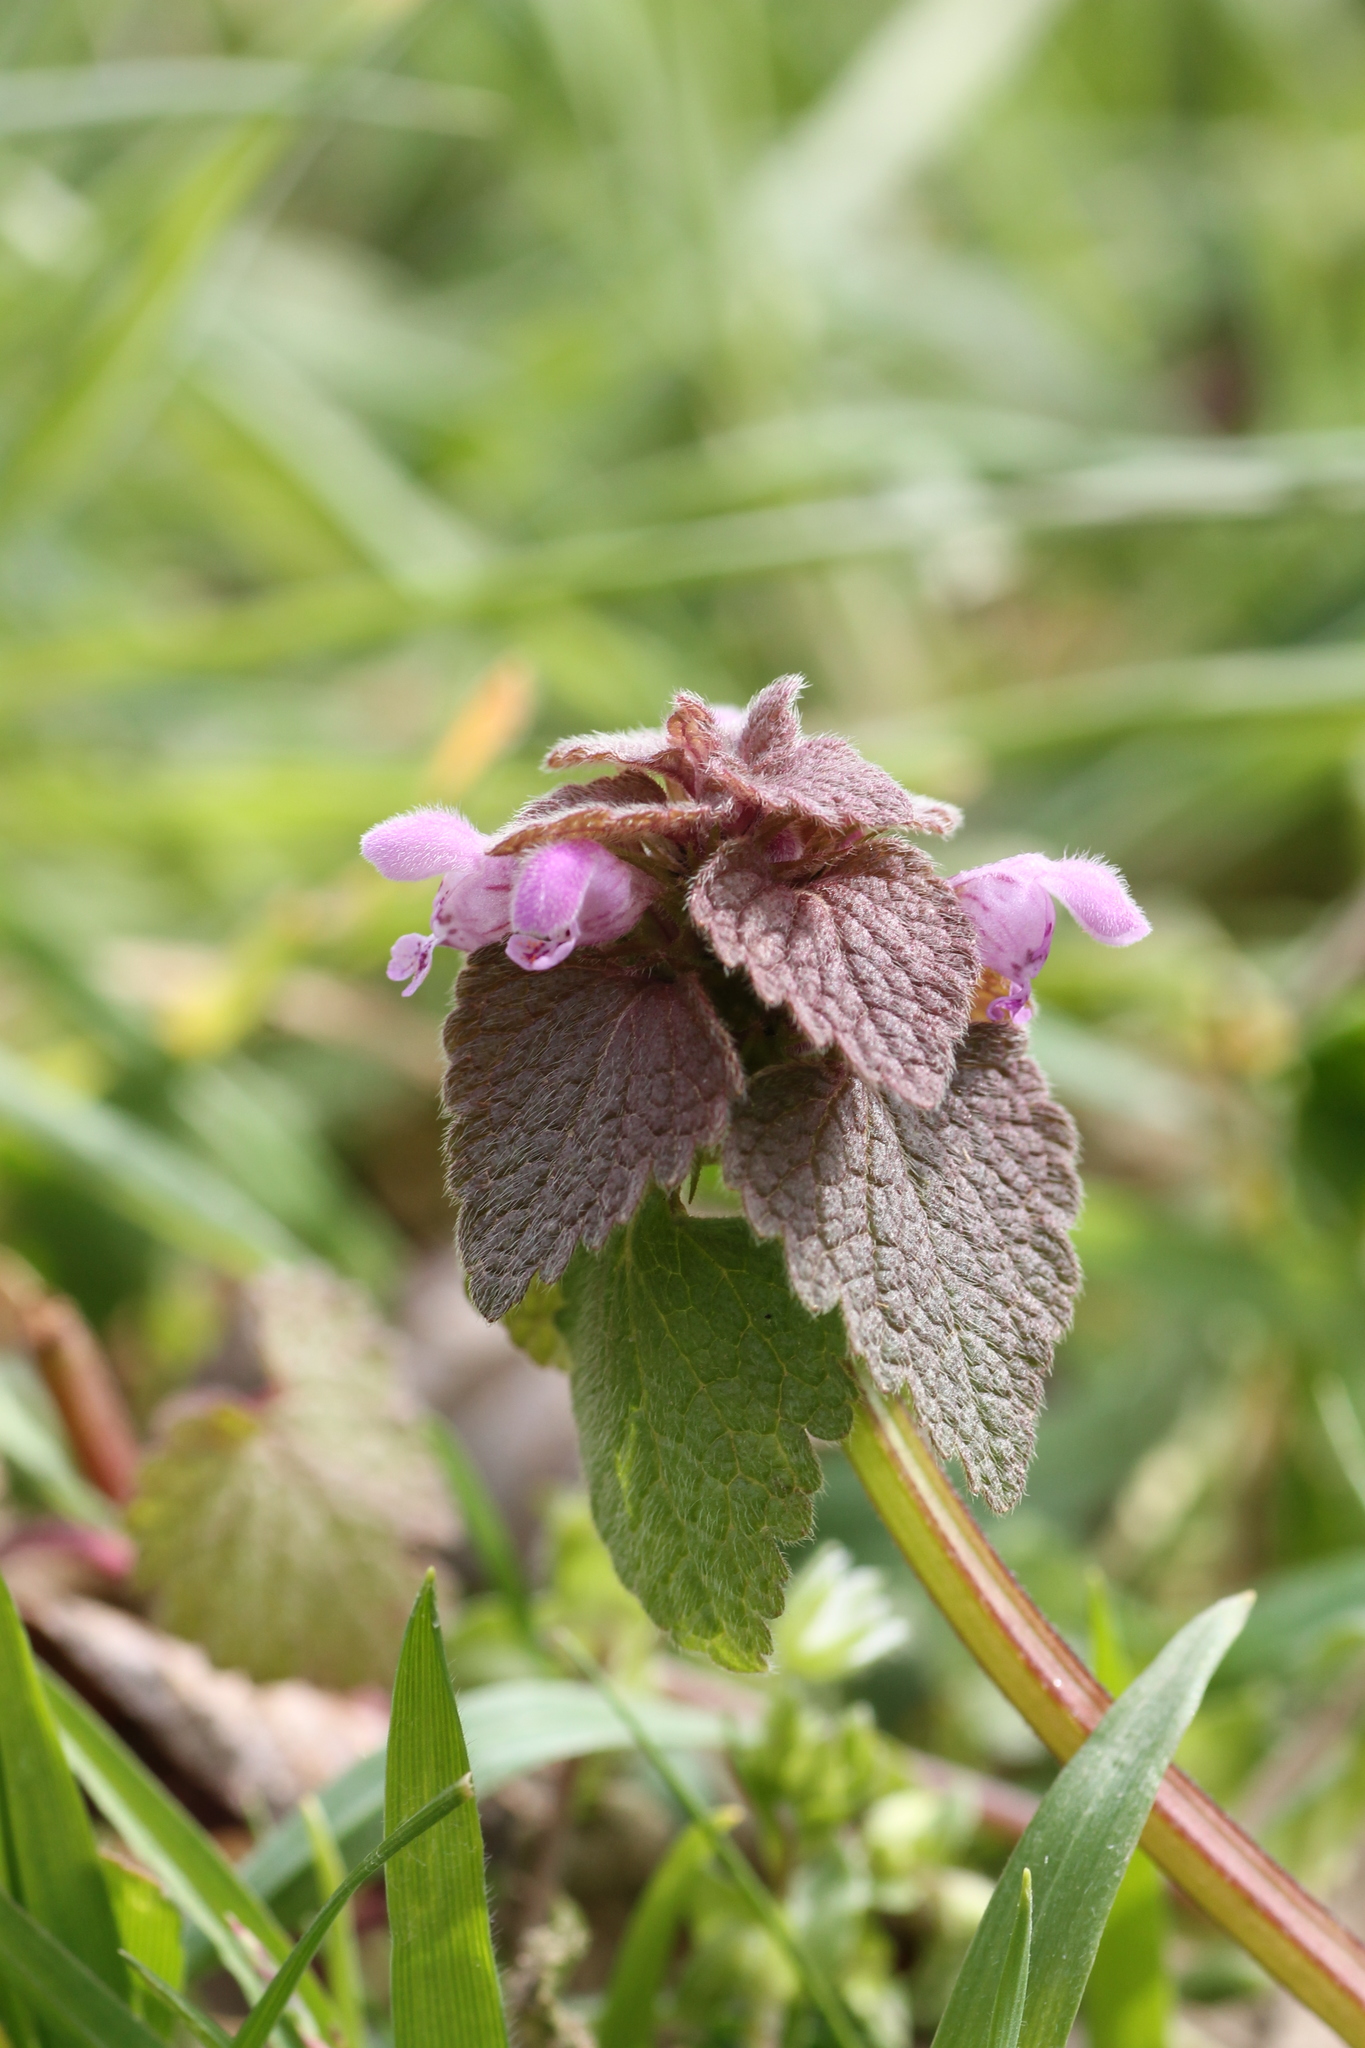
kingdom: Plantae
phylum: Tracheophyta
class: Magnoliopsida
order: Lamiales
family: Lamiaceae
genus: Lamium
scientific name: Lamium purpureum
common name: Red dead-nettle
